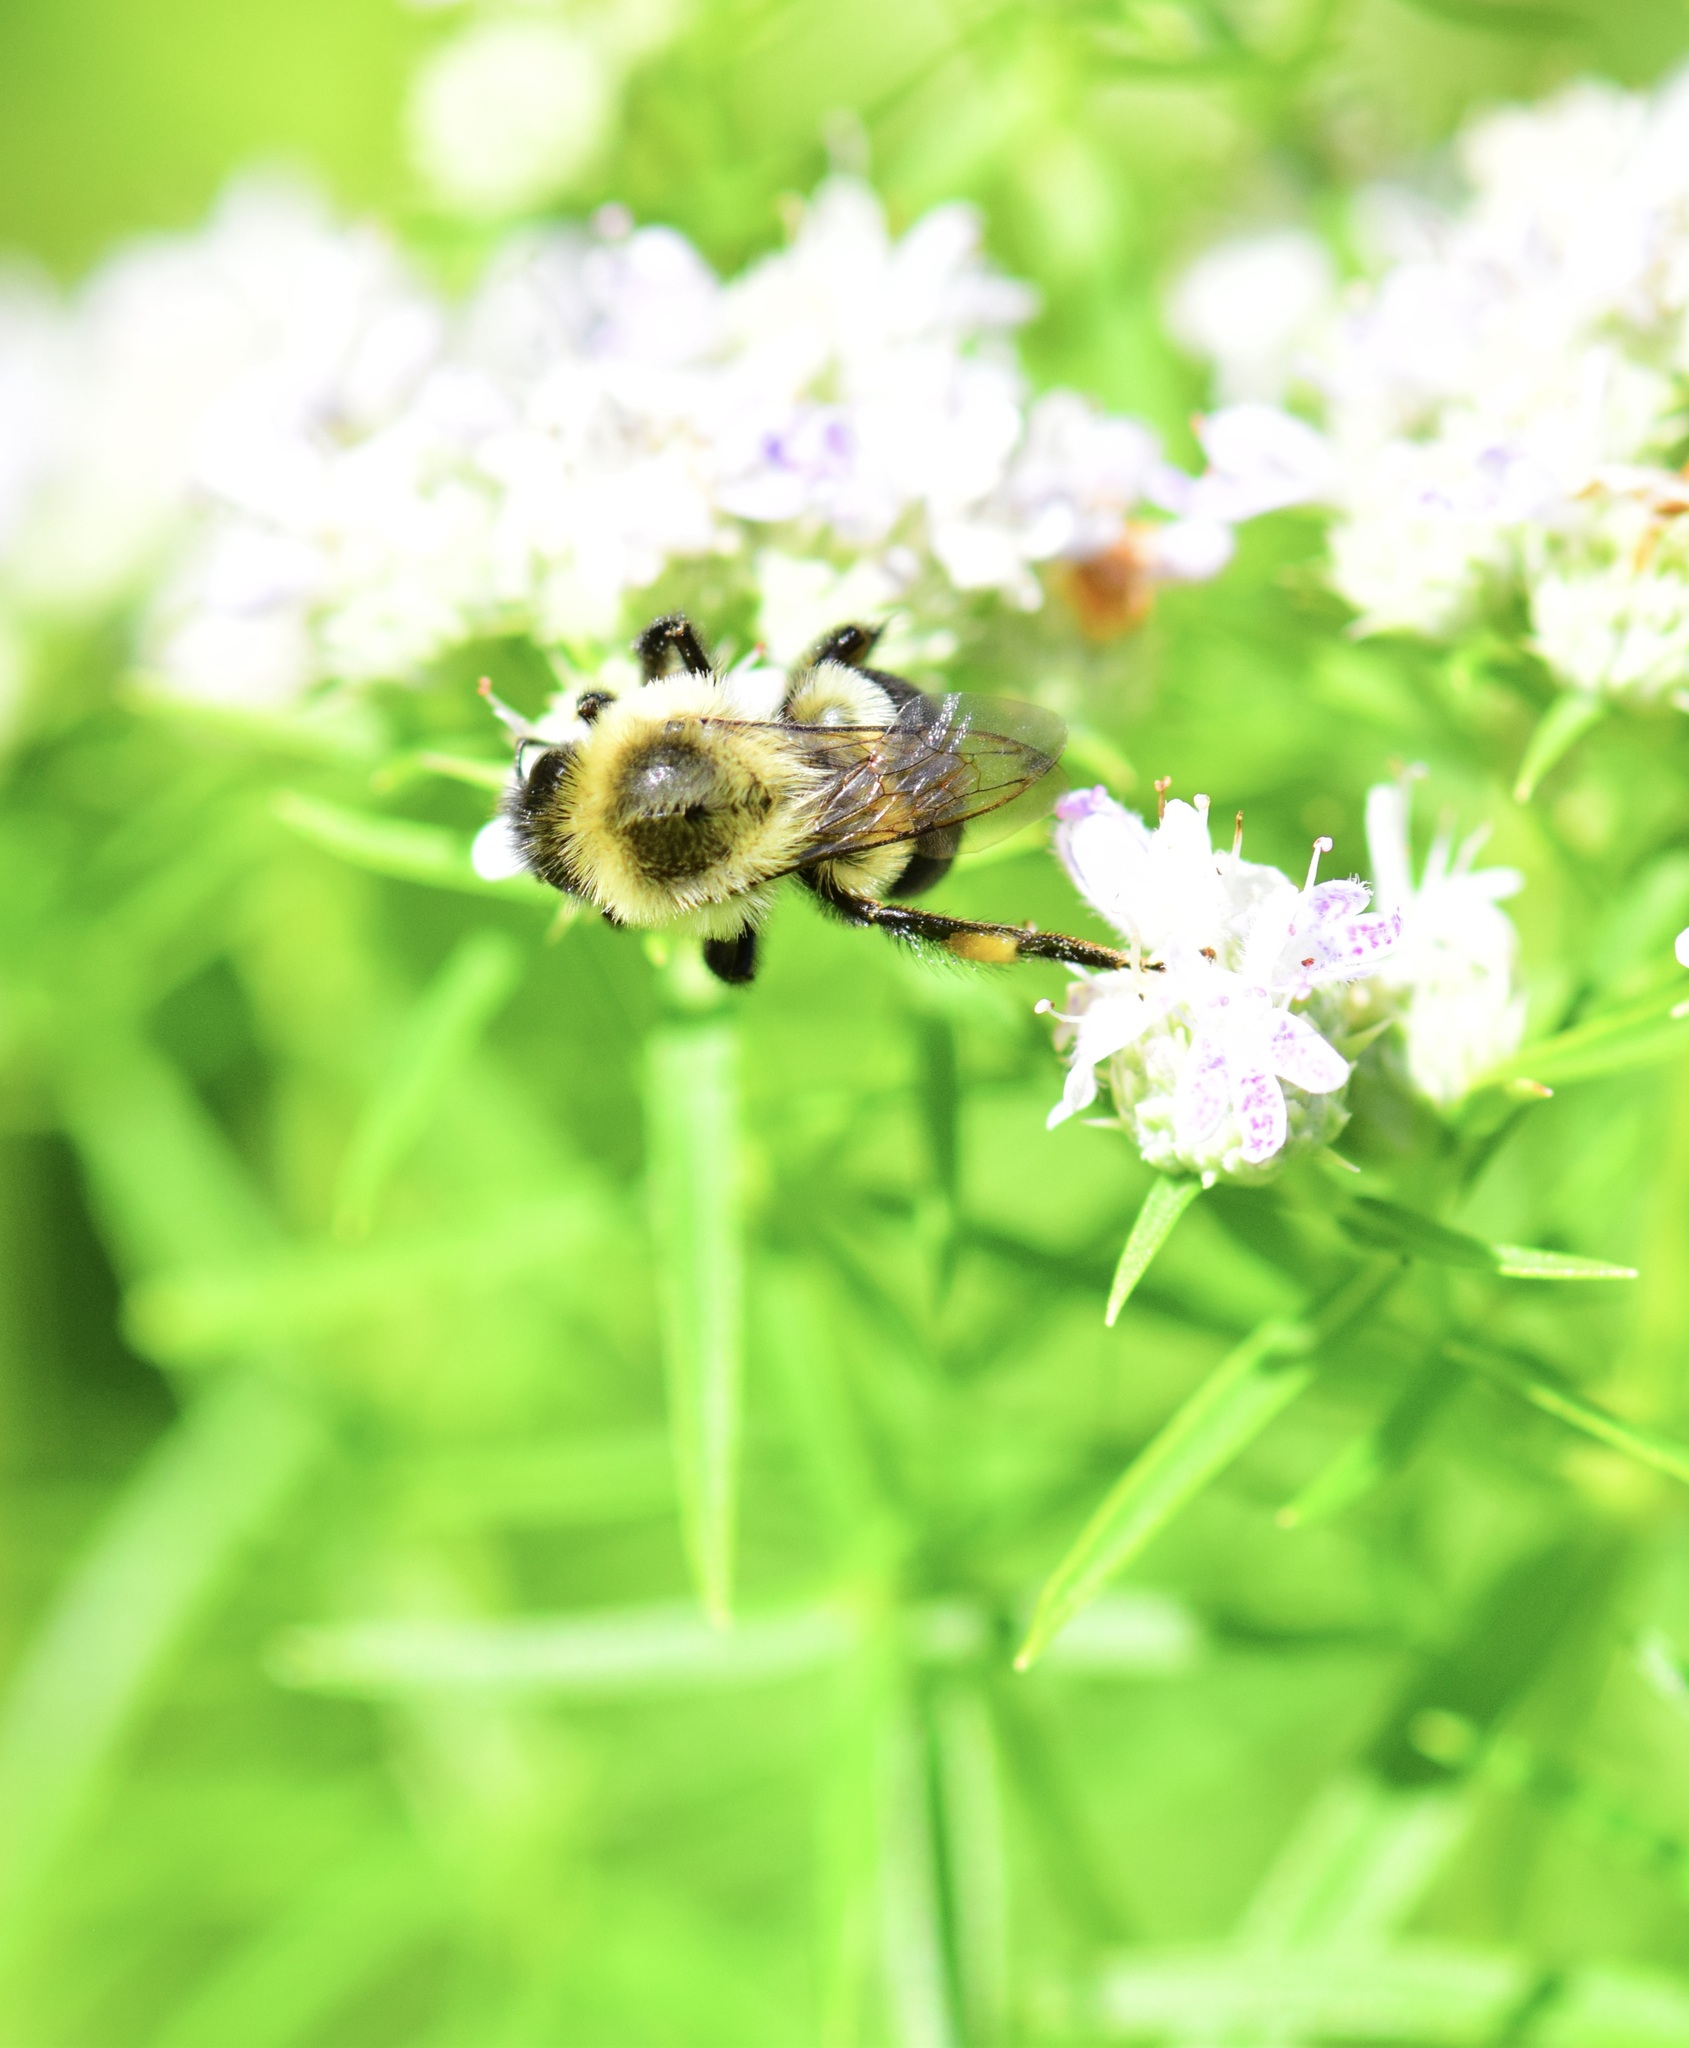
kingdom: Animalia
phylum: Arthropoda
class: Insecta
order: Hymenoptera
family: Apidae
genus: Bombus
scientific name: Bombus impatiens
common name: Common eastern bumble bee
